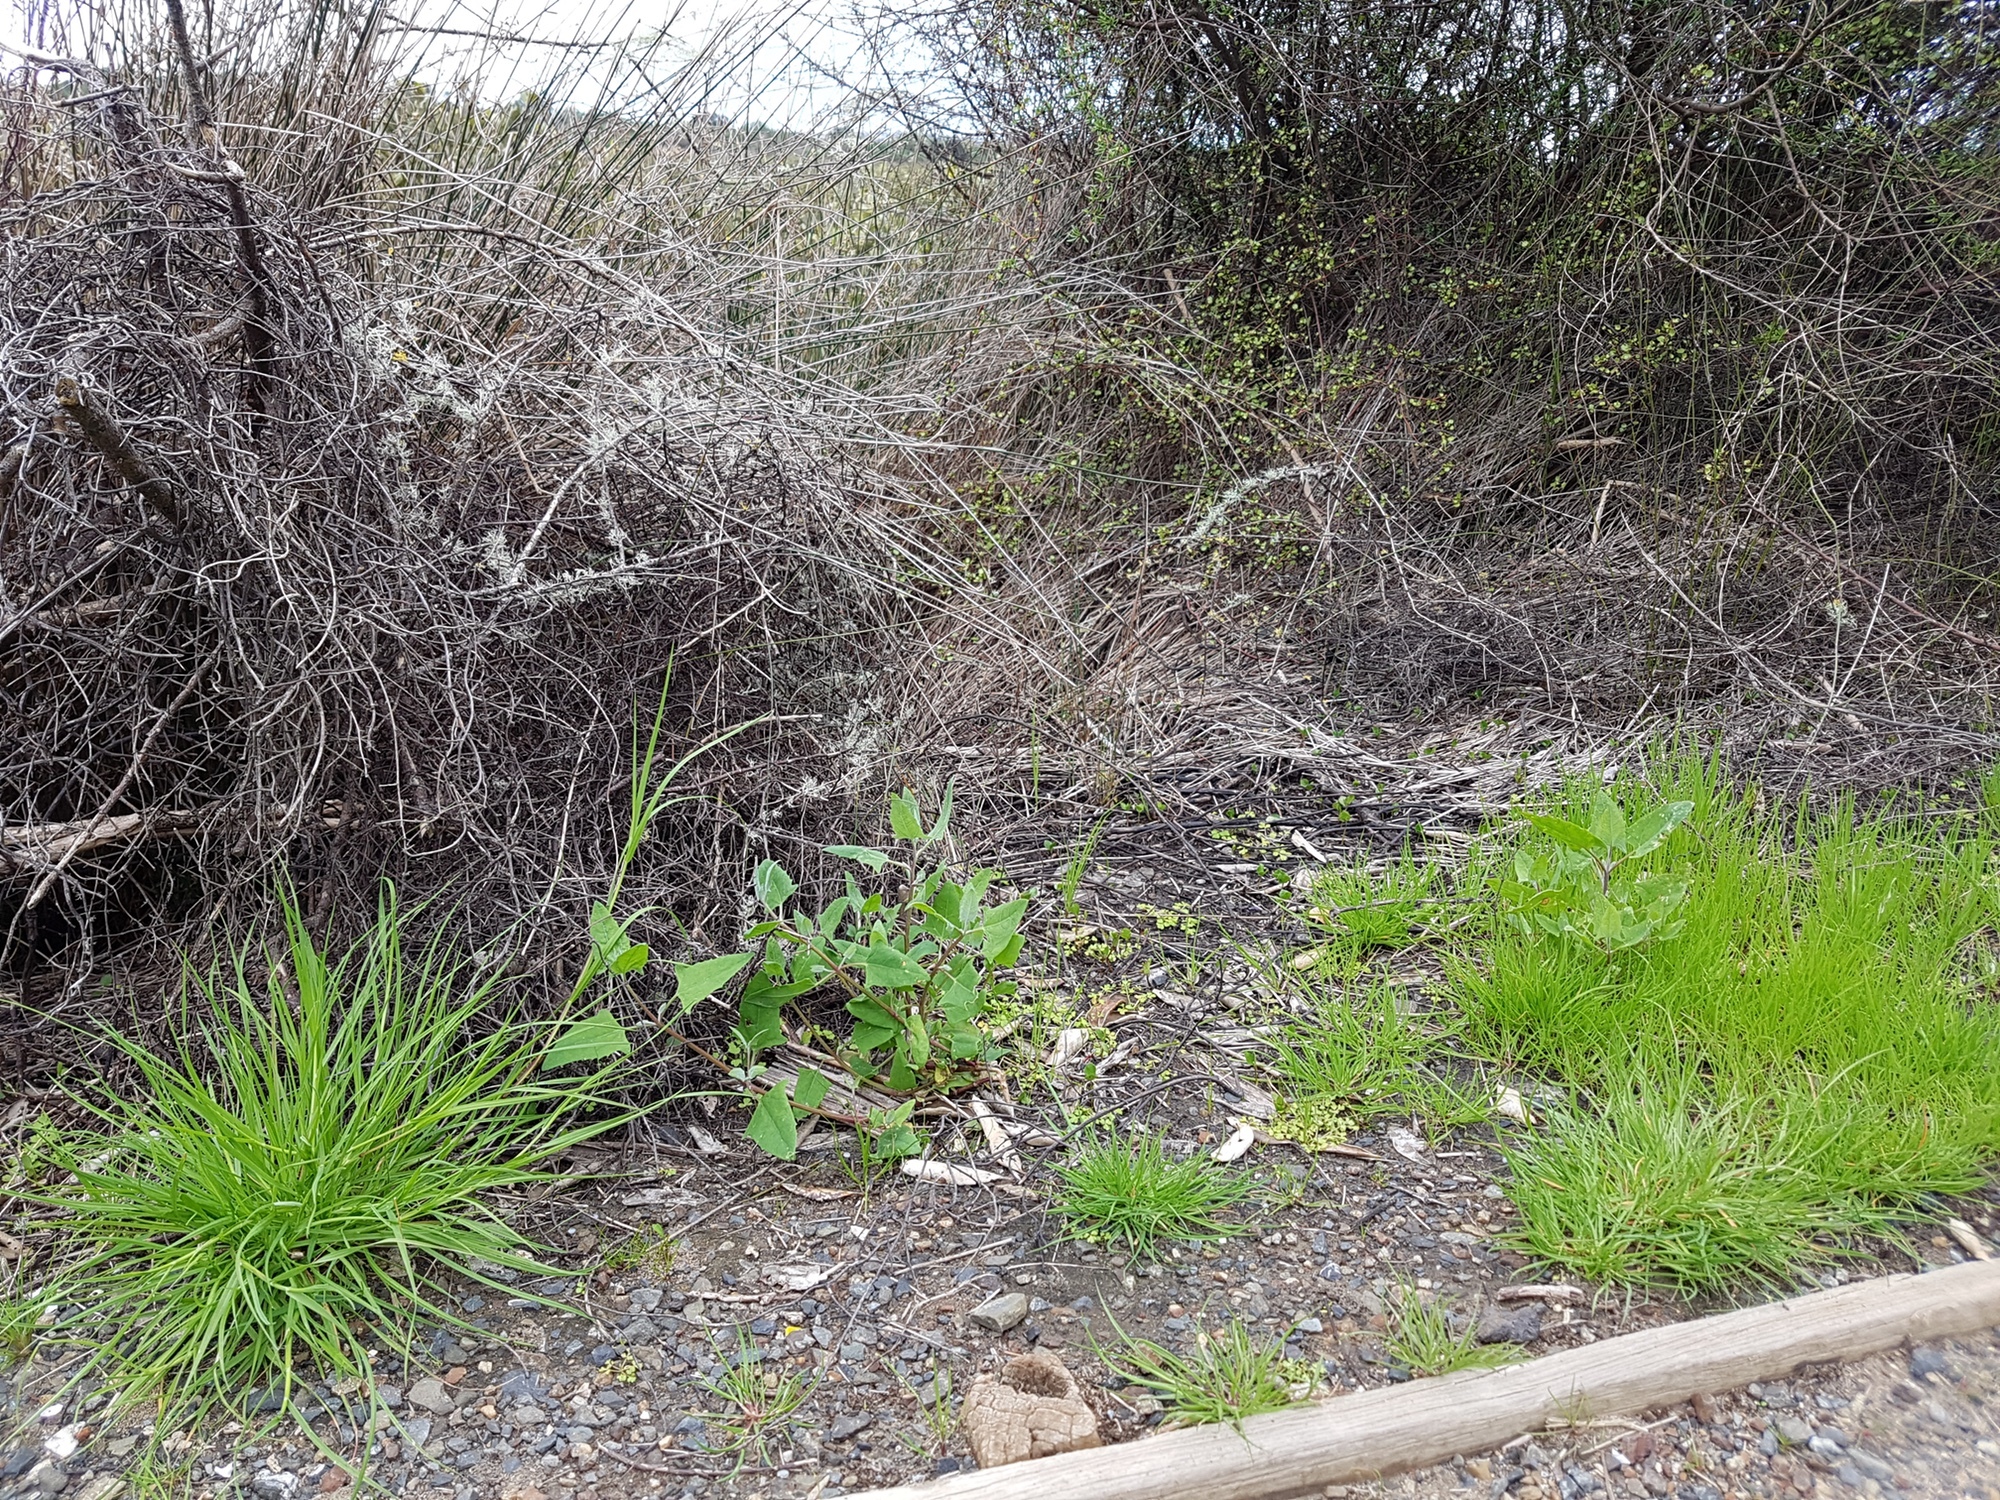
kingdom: Plantae
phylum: Tracheophyta
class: Magnoliopsida
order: Caryophyllales
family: Amaranthaceae
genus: Atriplex
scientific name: Atriplex prostrata
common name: Spear-leaved orache
